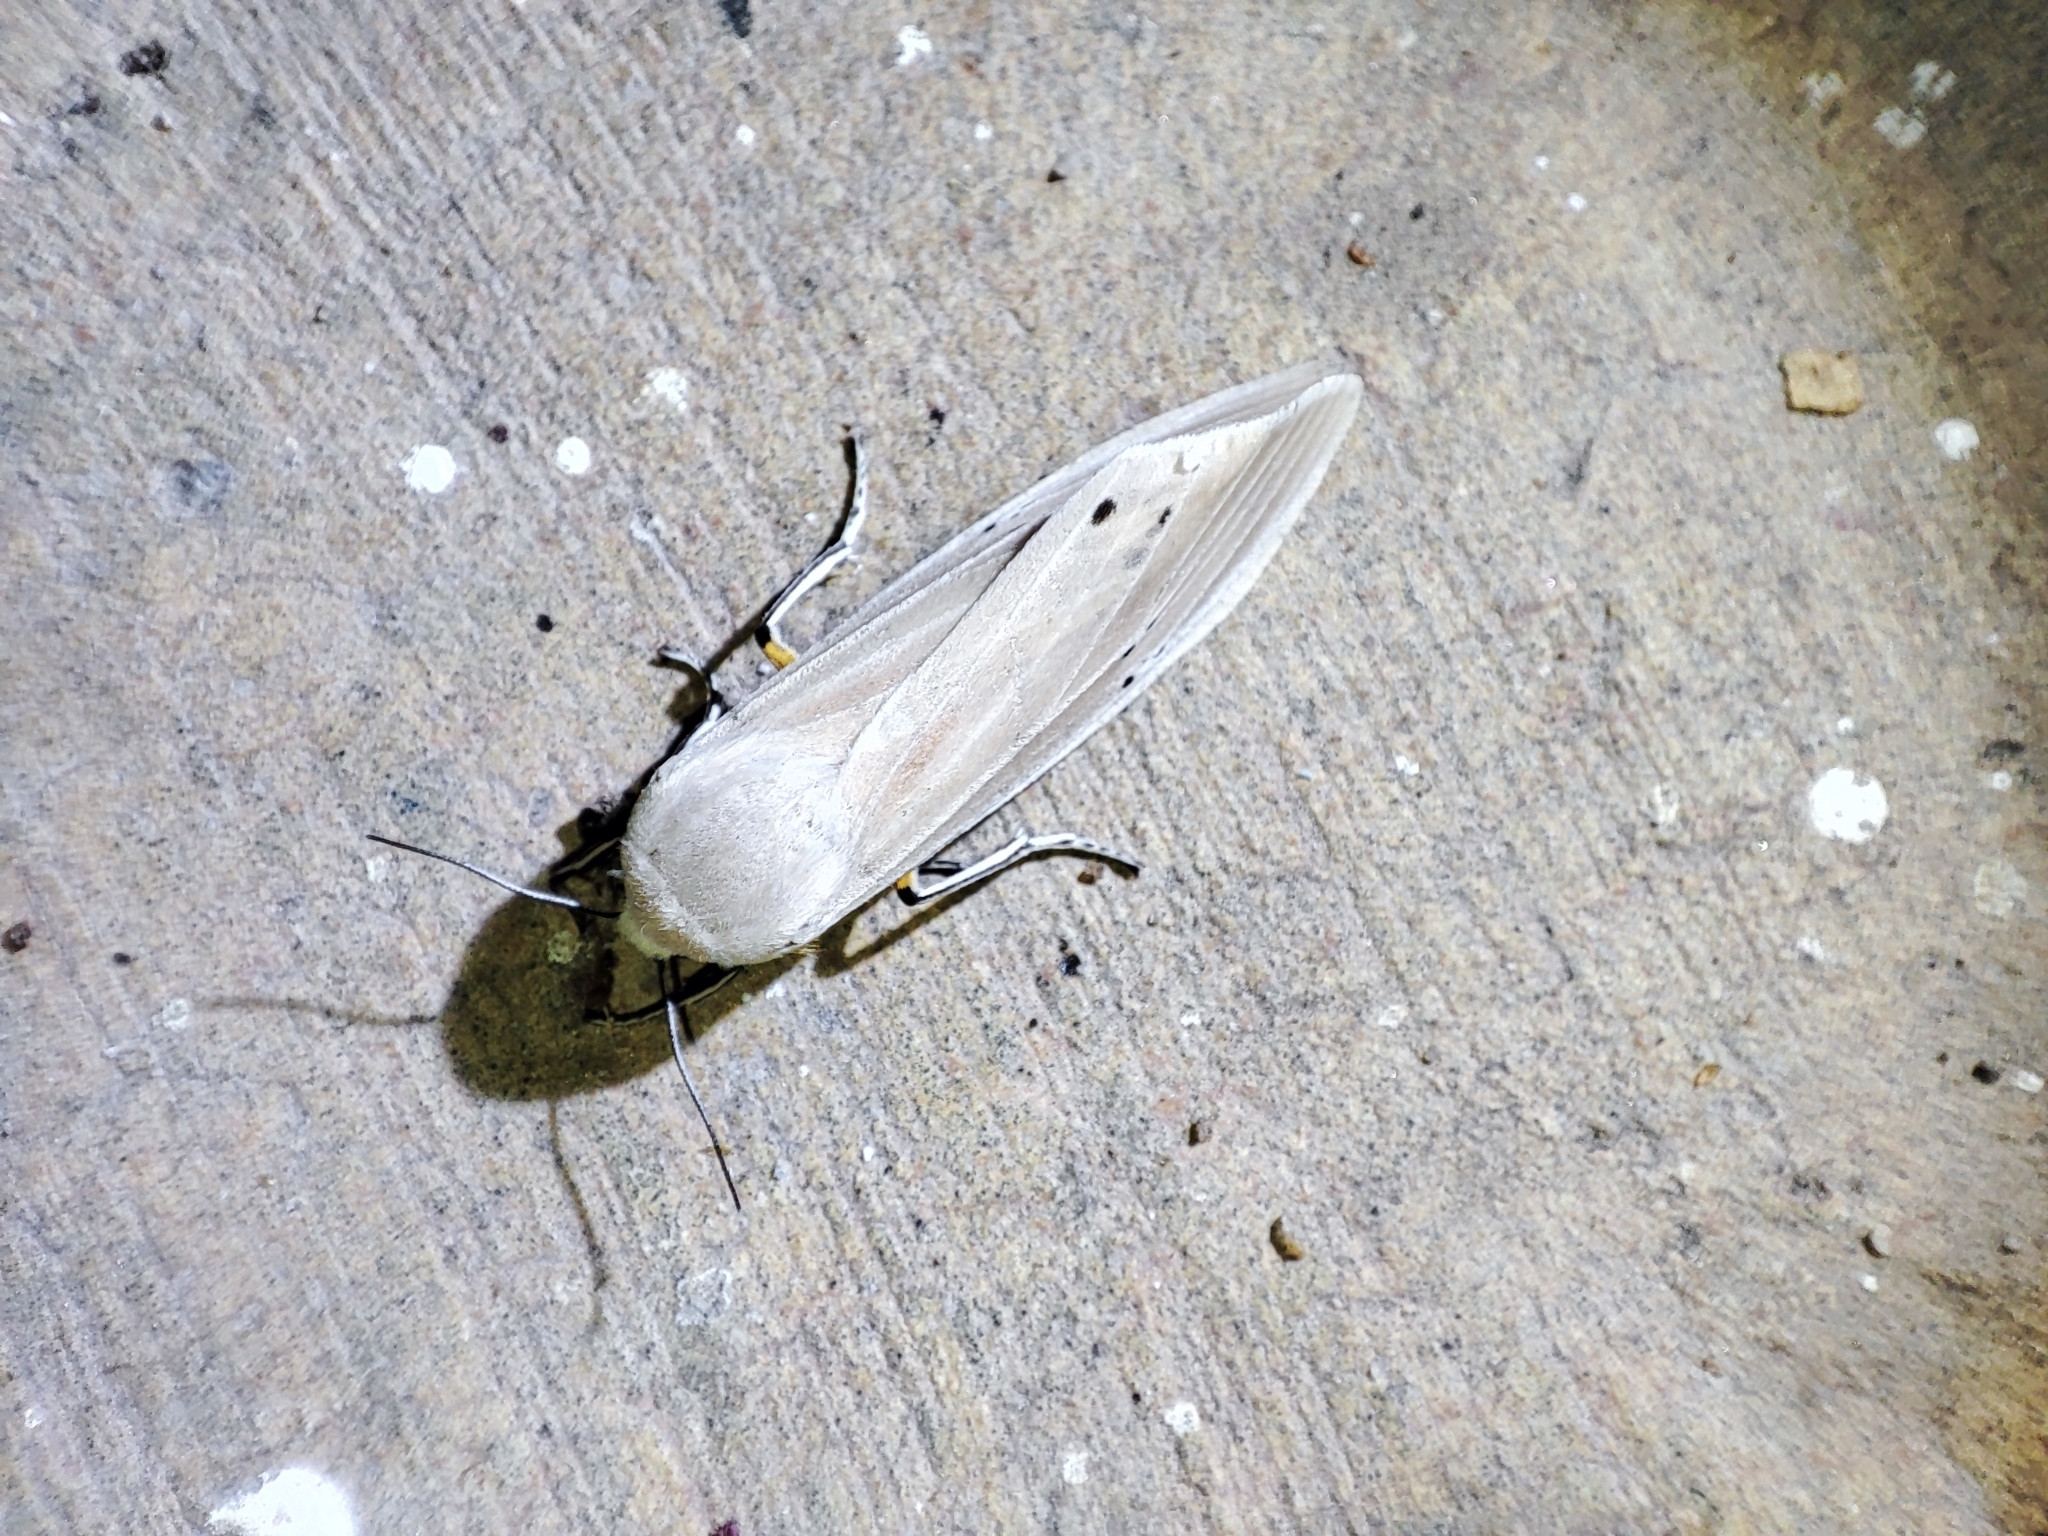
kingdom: Animalia
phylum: Arthropoda
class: Insecta
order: Lepidoptera
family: Erebidae
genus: Creatonotos
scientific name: Creatonotos transiens
